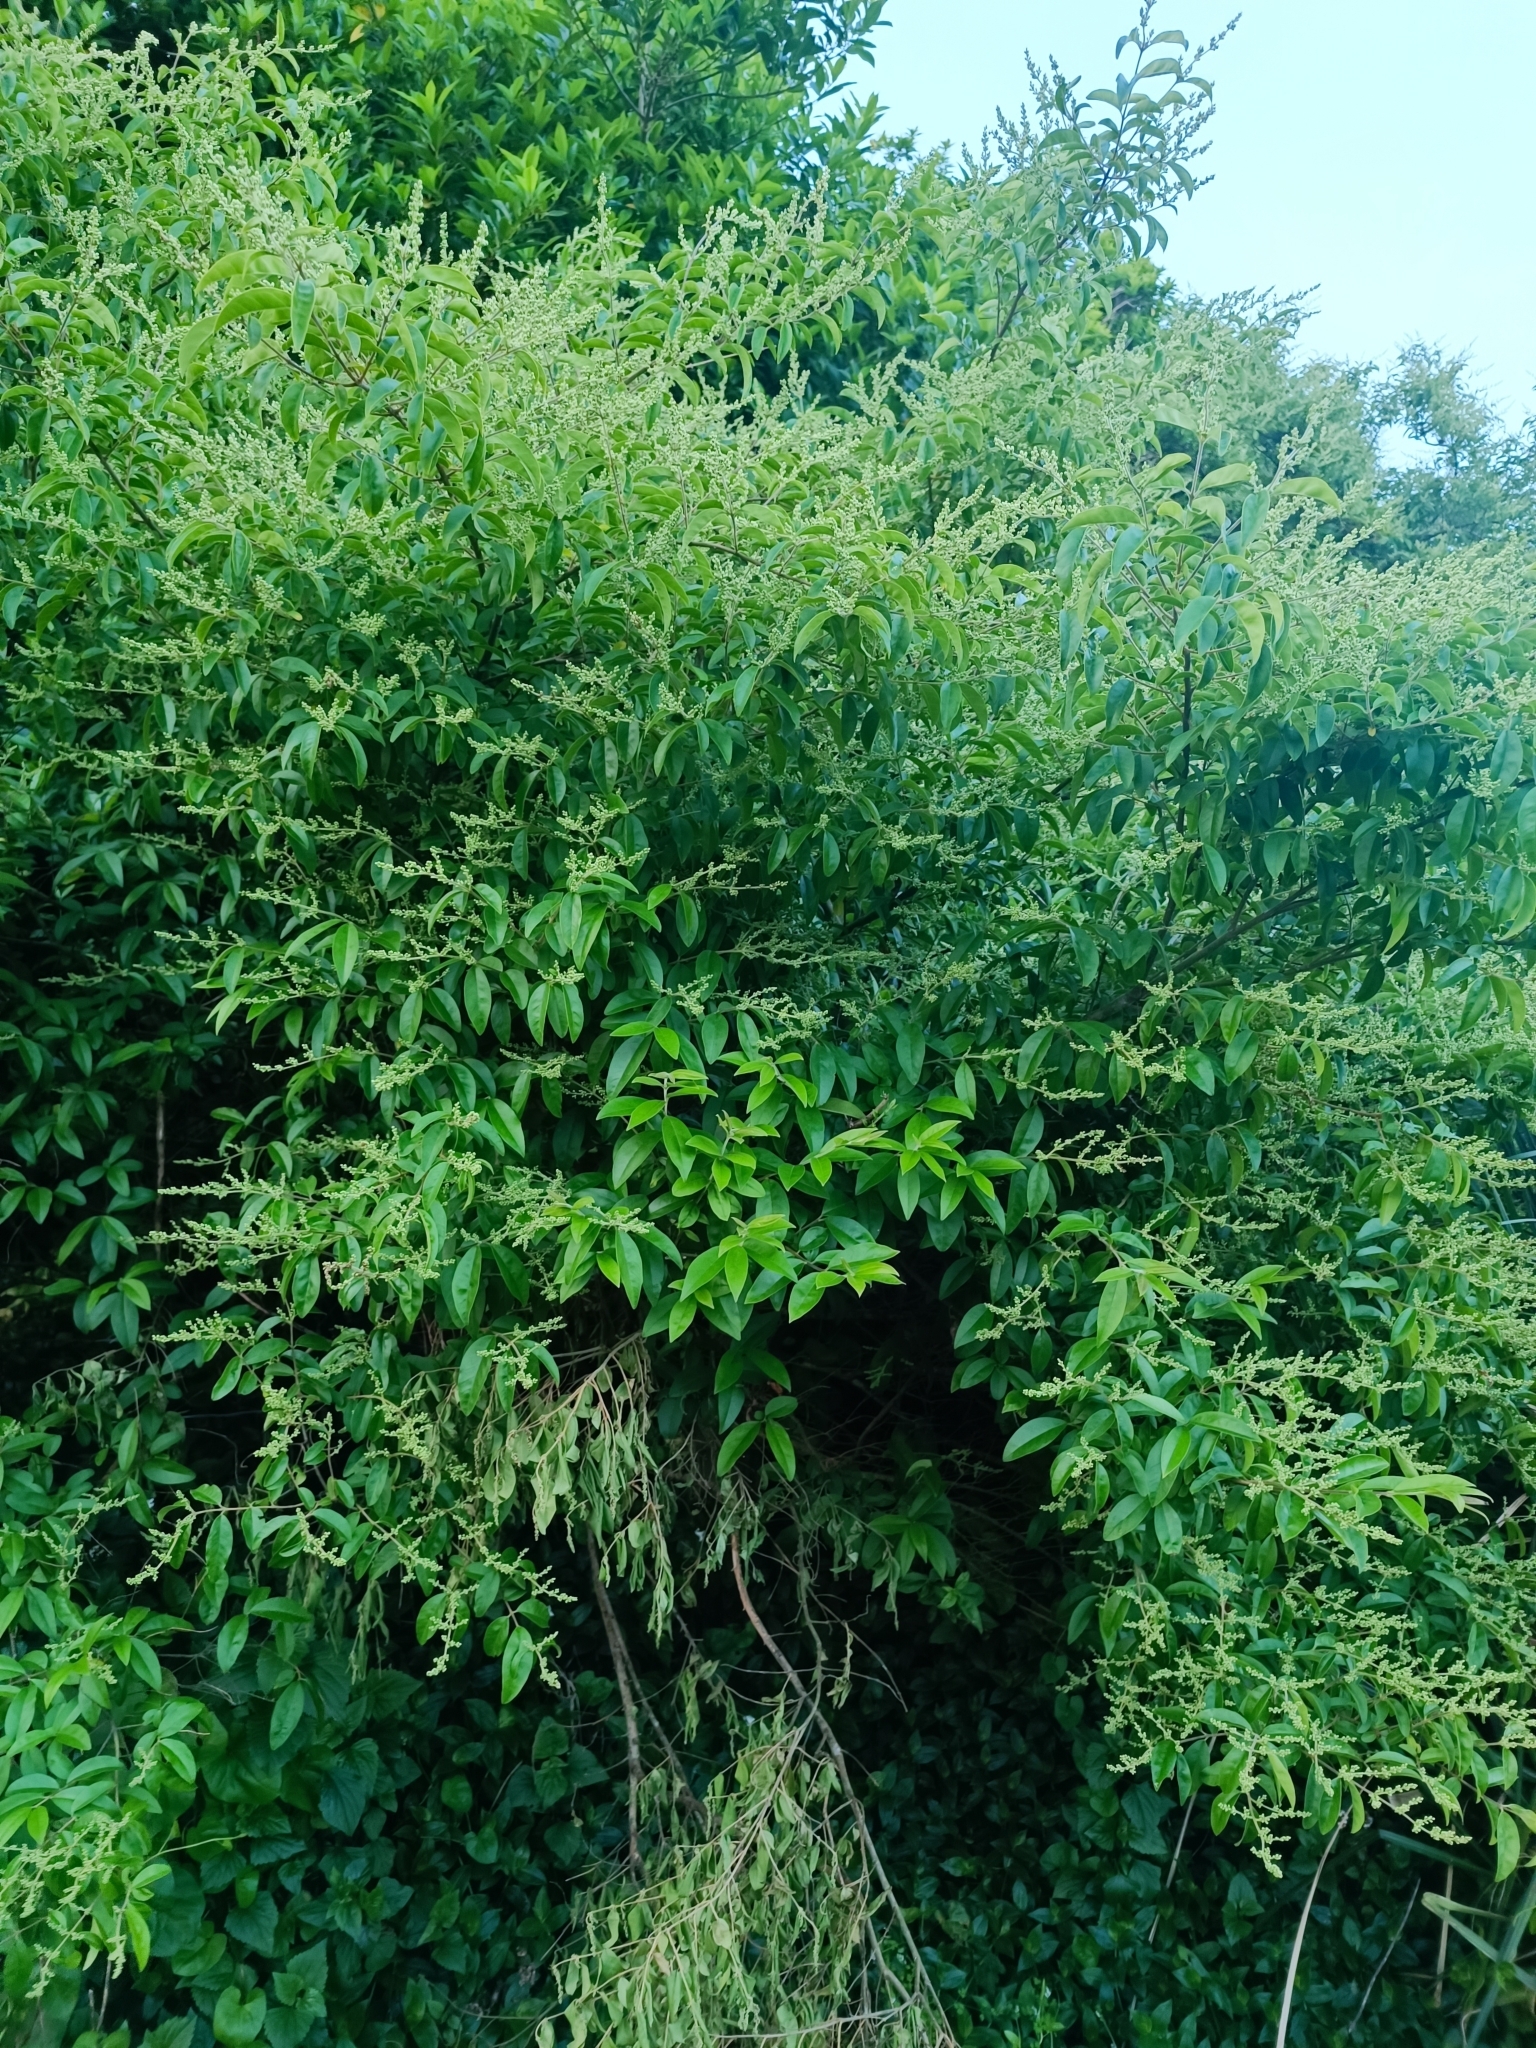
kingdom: Plantae
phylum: Tracheophyta
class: Magnoliopsida
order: Lamiales
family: Oleaceae
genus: Ligustrum
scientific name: Ligustrum sinense
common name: Chinese privet
